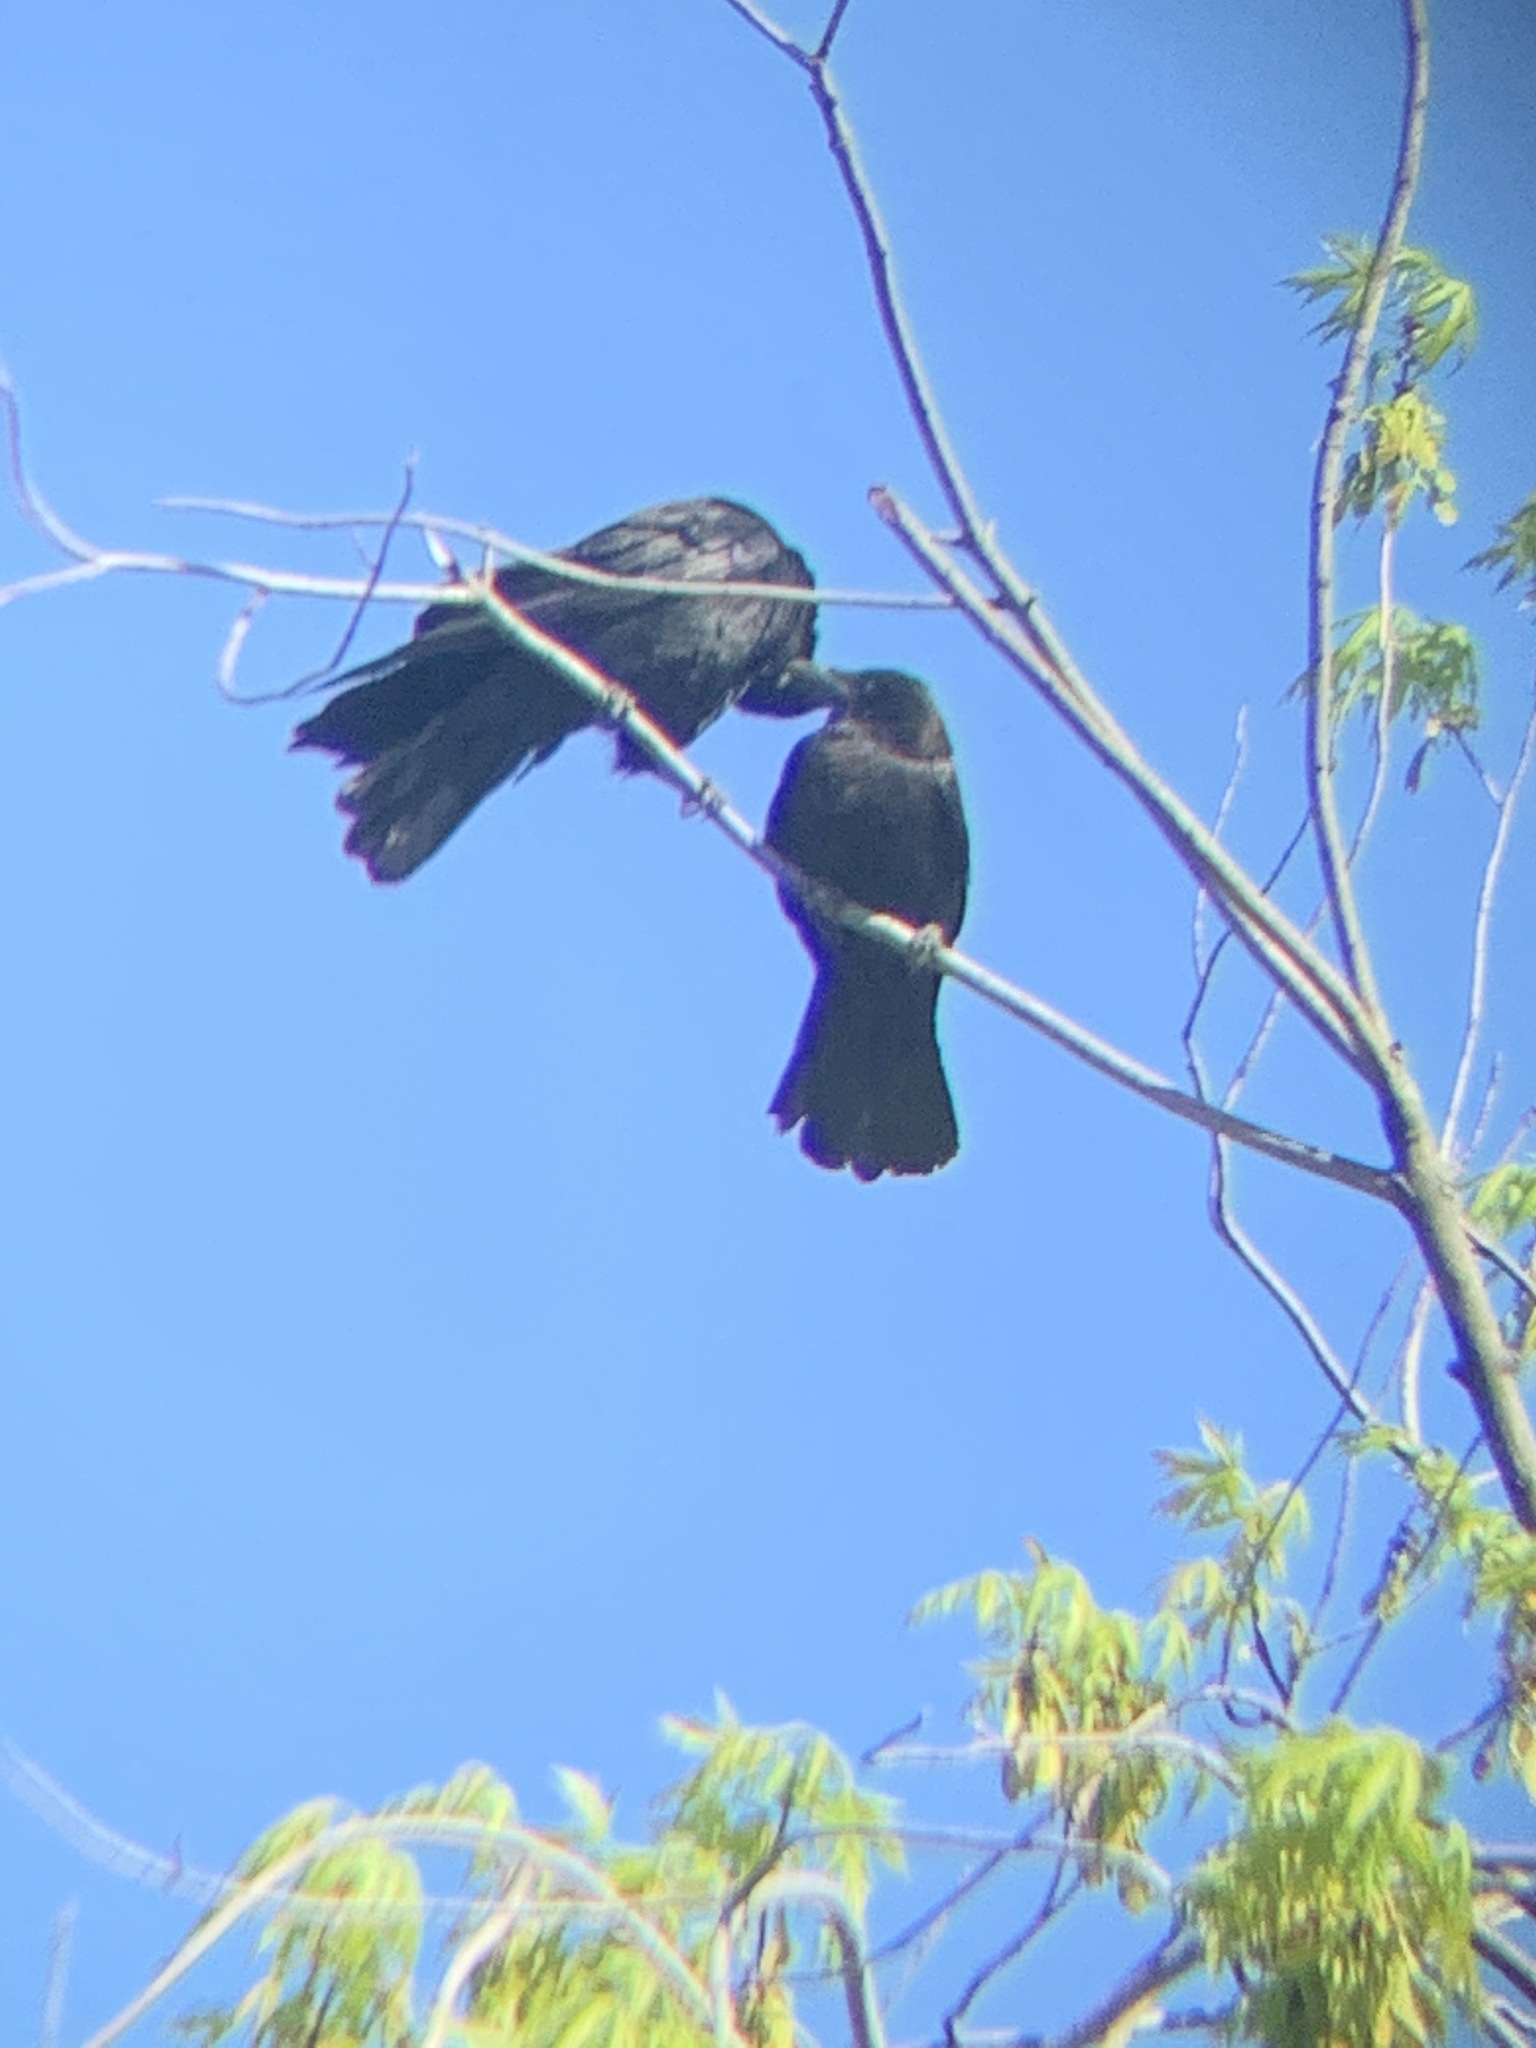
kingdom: Animalia
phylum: Chordata
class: Aves
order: Passeriformes
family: Corvidae
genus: Corvus
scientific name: Corvus brachyrhynchos
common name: American crow
